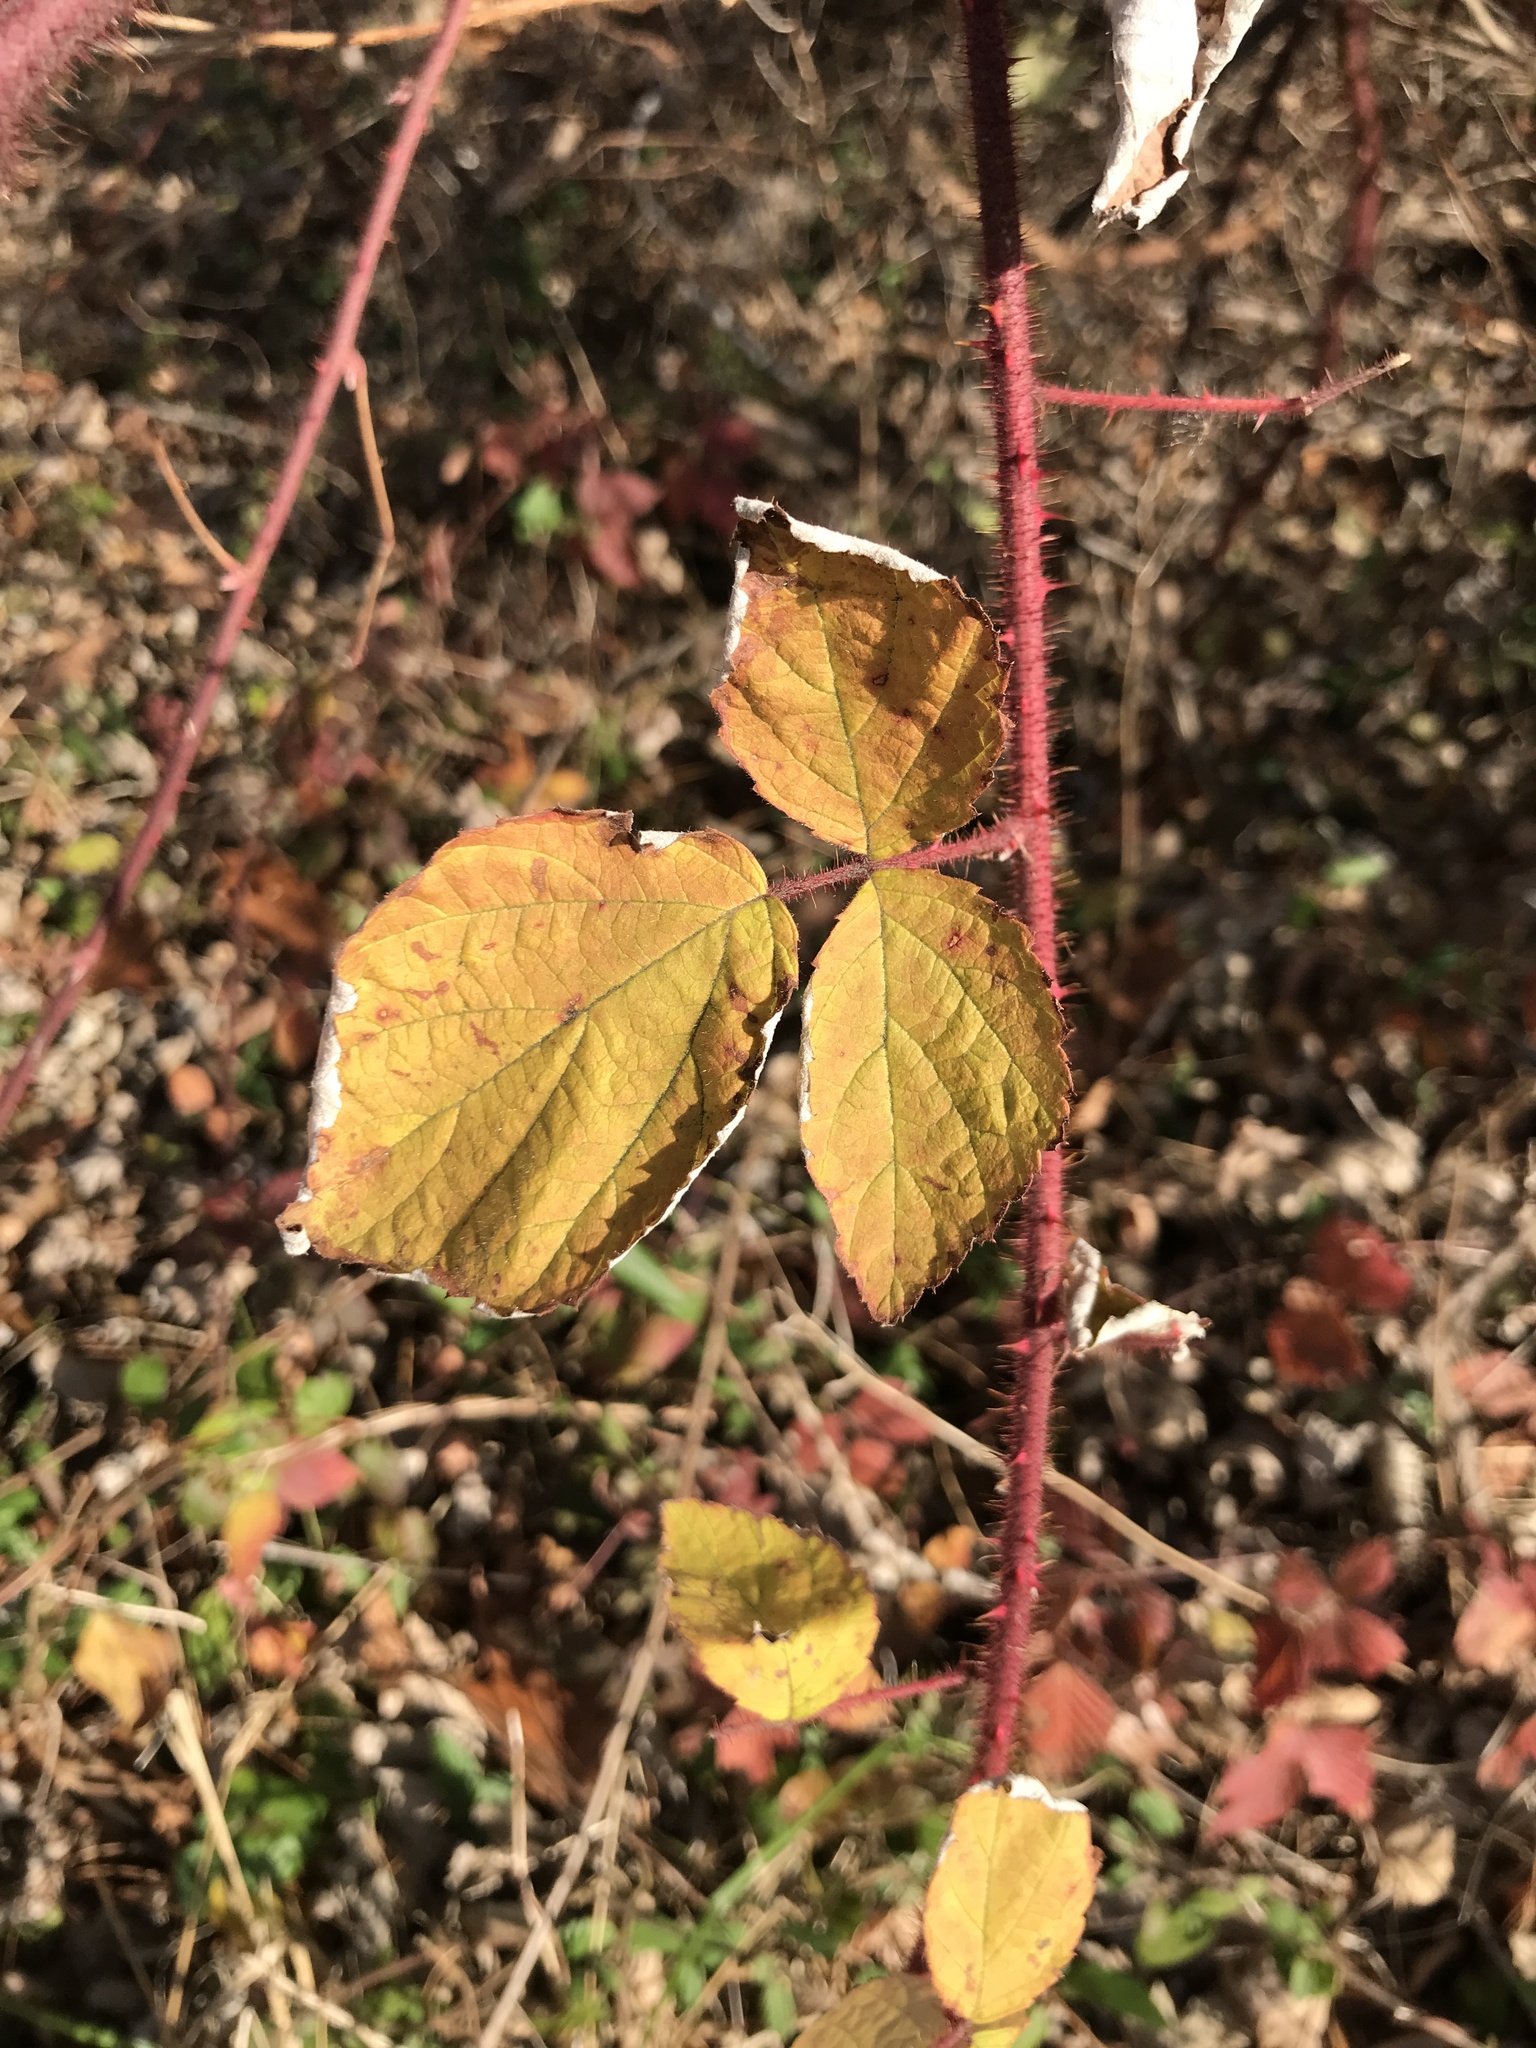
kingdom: Plantae
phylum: Tracheophyta
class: Magnoliopsida
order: Rosales
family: Rosaceae
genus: Rubus
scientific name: Rubus phoenicolasius
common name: Japanese wineberry
